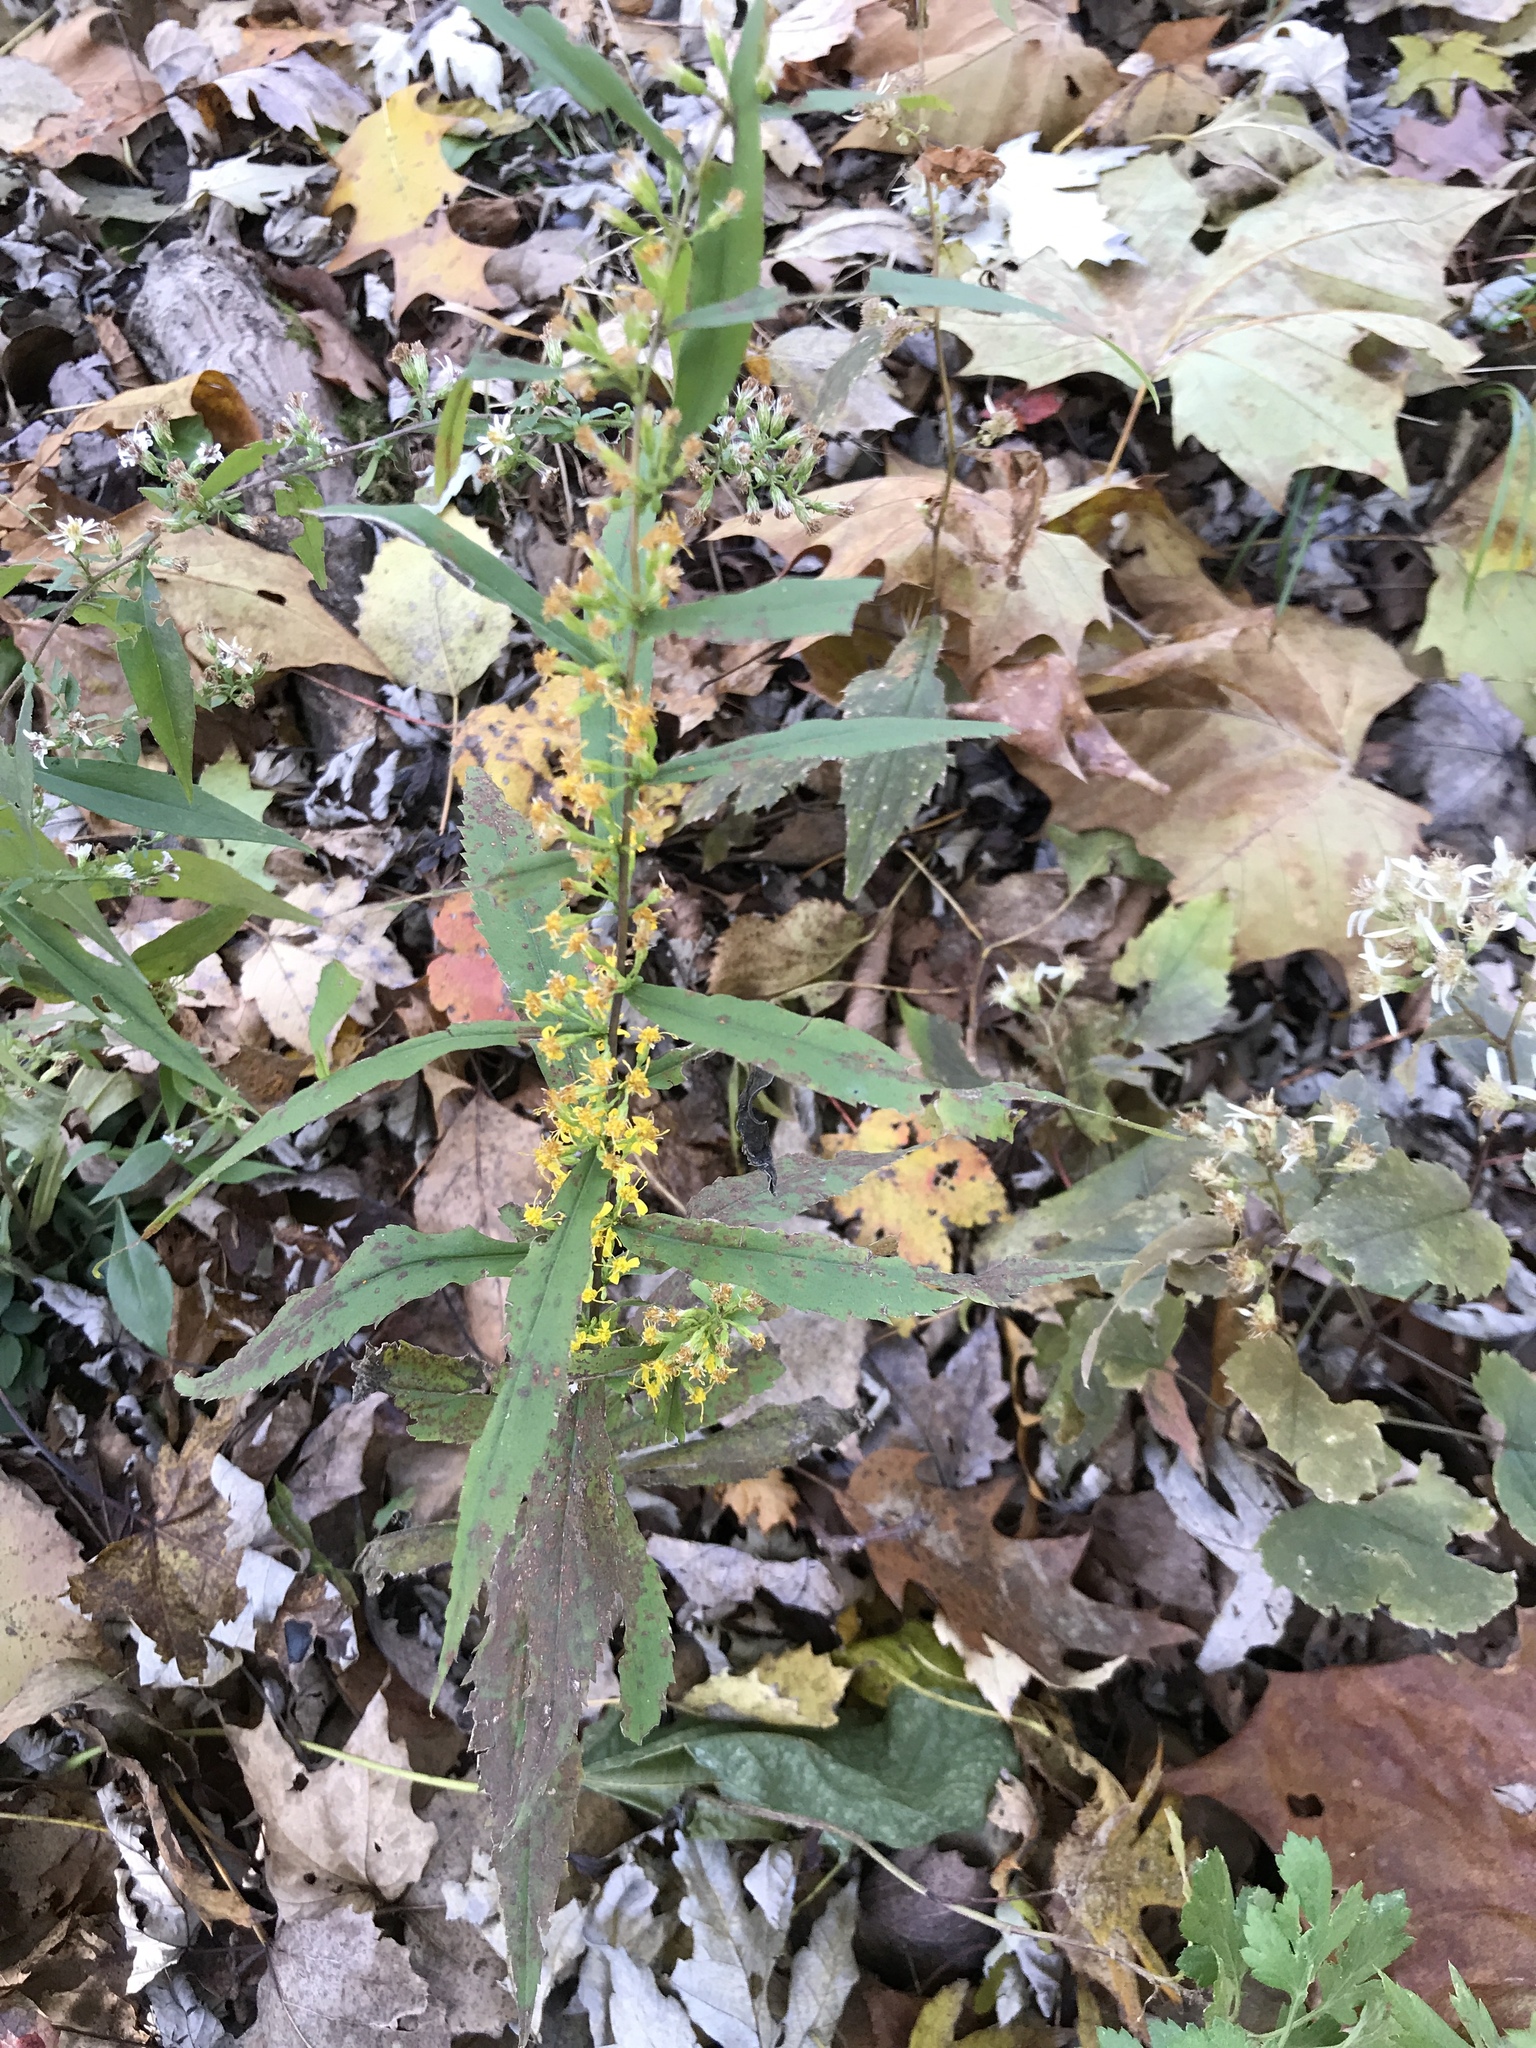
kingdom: Plantae
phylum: Tracheophyta
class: Magnoliopsida
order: Asterales
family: Asteraceae
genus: Solidago
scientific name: Solidago caesia
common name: Woodland goldenrod
